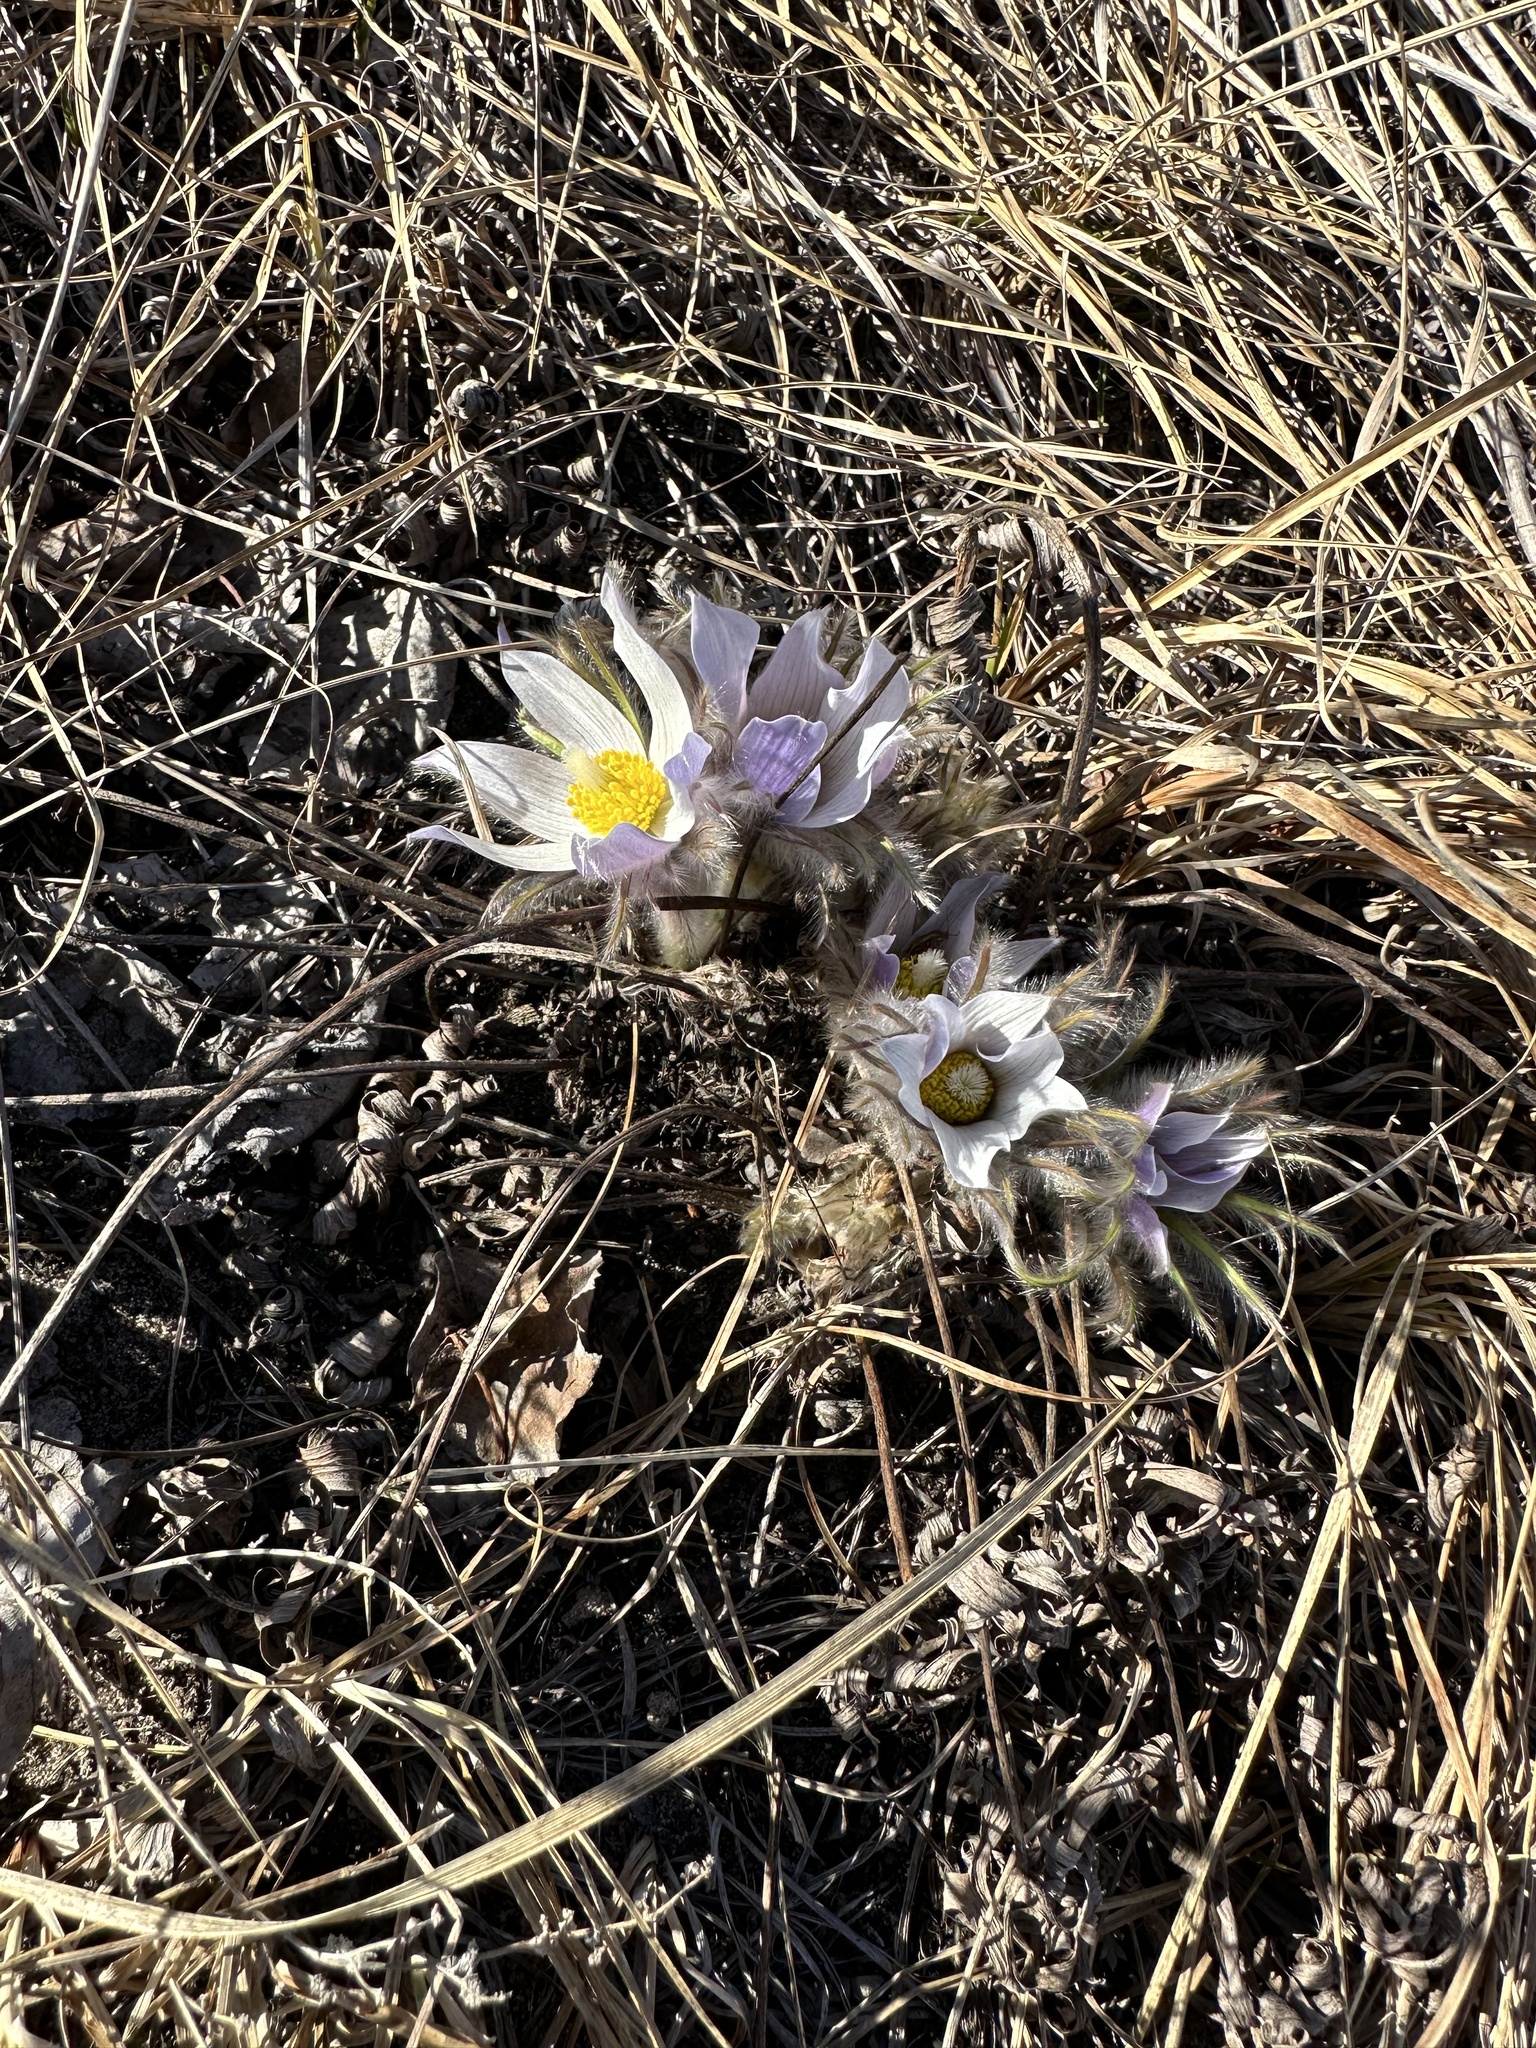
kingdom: Plantae
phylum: Tracheophyta
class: Magnoliopsida
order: Ranunculales
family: Ranunculaceae
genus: Pulsatilla
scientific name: Pulsatilla nuttalliana
